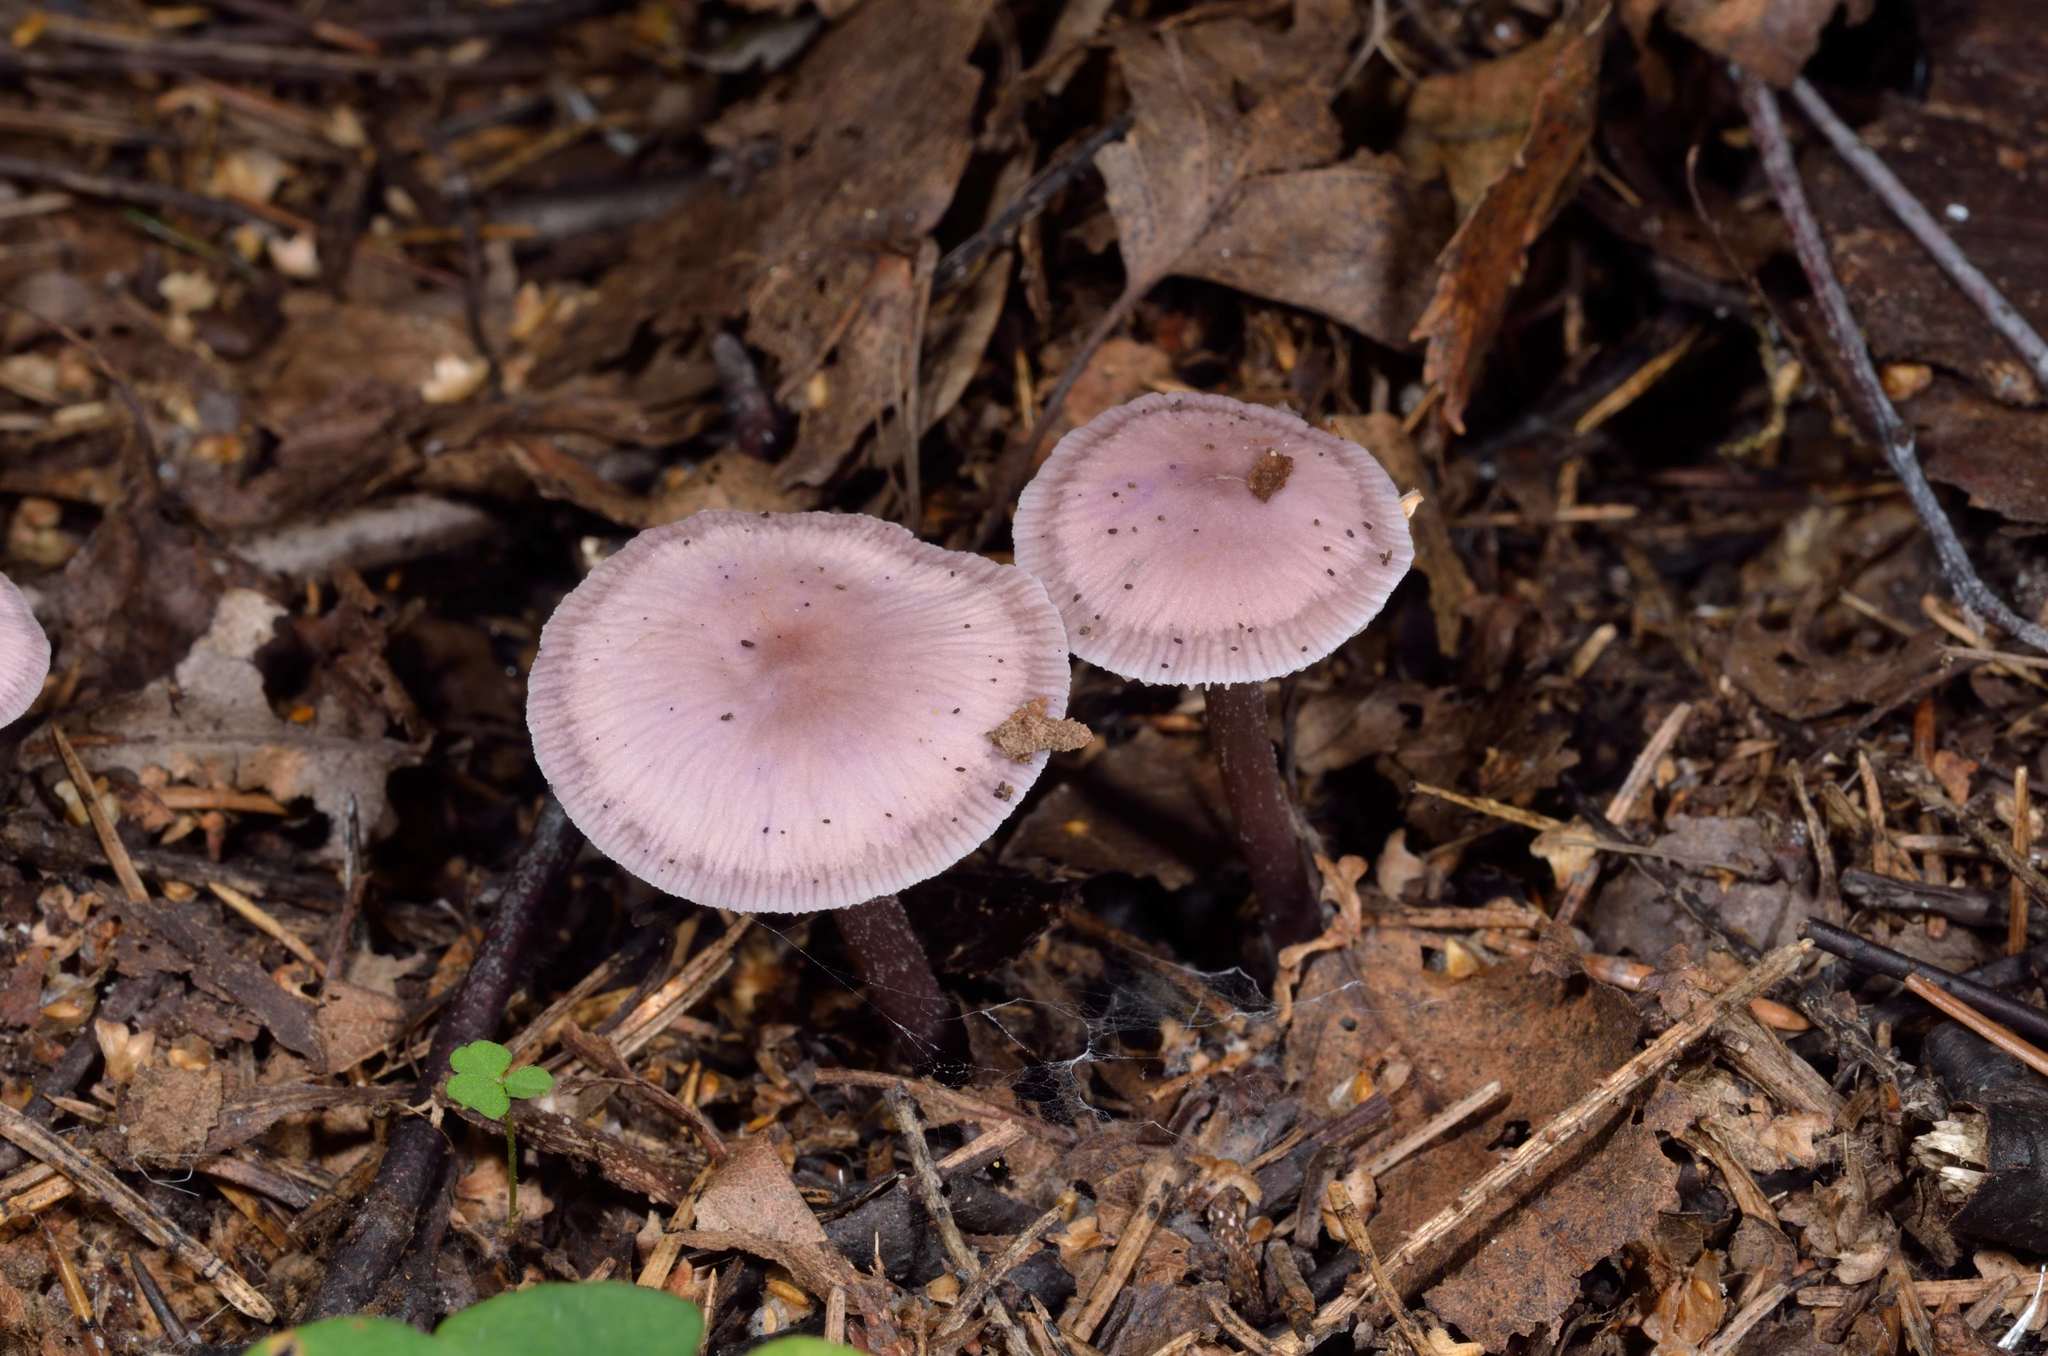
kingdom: Fungi
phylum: Basidiomycota
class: Agaricomycetes
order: Agaricales
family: Mycenaceae
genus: Mycena
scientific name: Mycena pura
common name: Lilac bonnet
